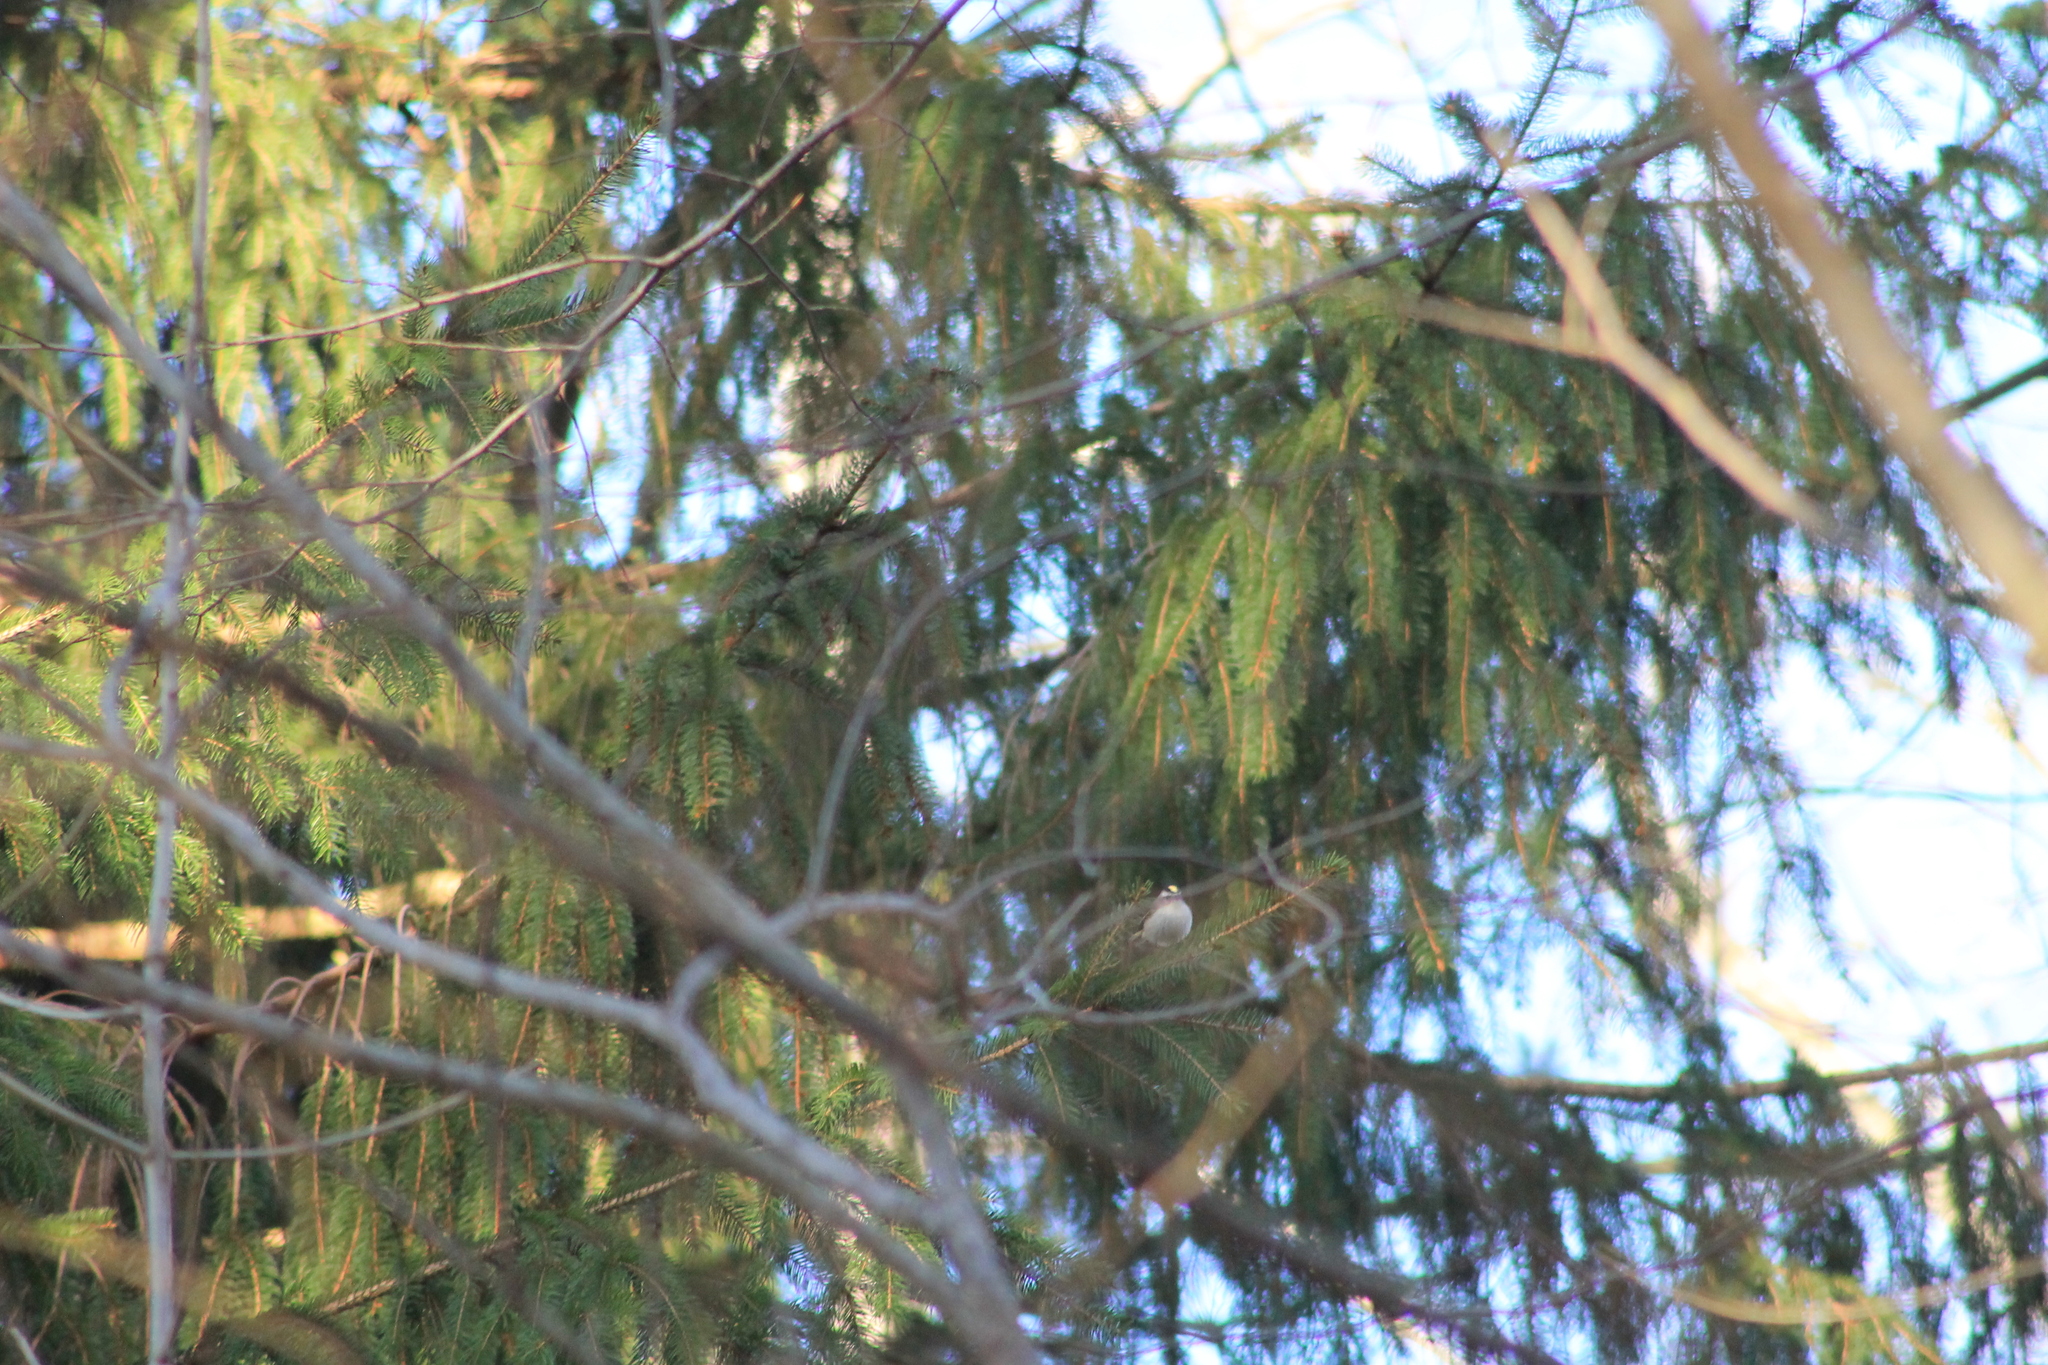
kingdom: Animalia
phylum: Chordata
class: Aves
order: Passeriformes
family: Regulidae
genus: Regulus
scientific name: Regulus satrapa
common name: Golden-crowned kinglet
